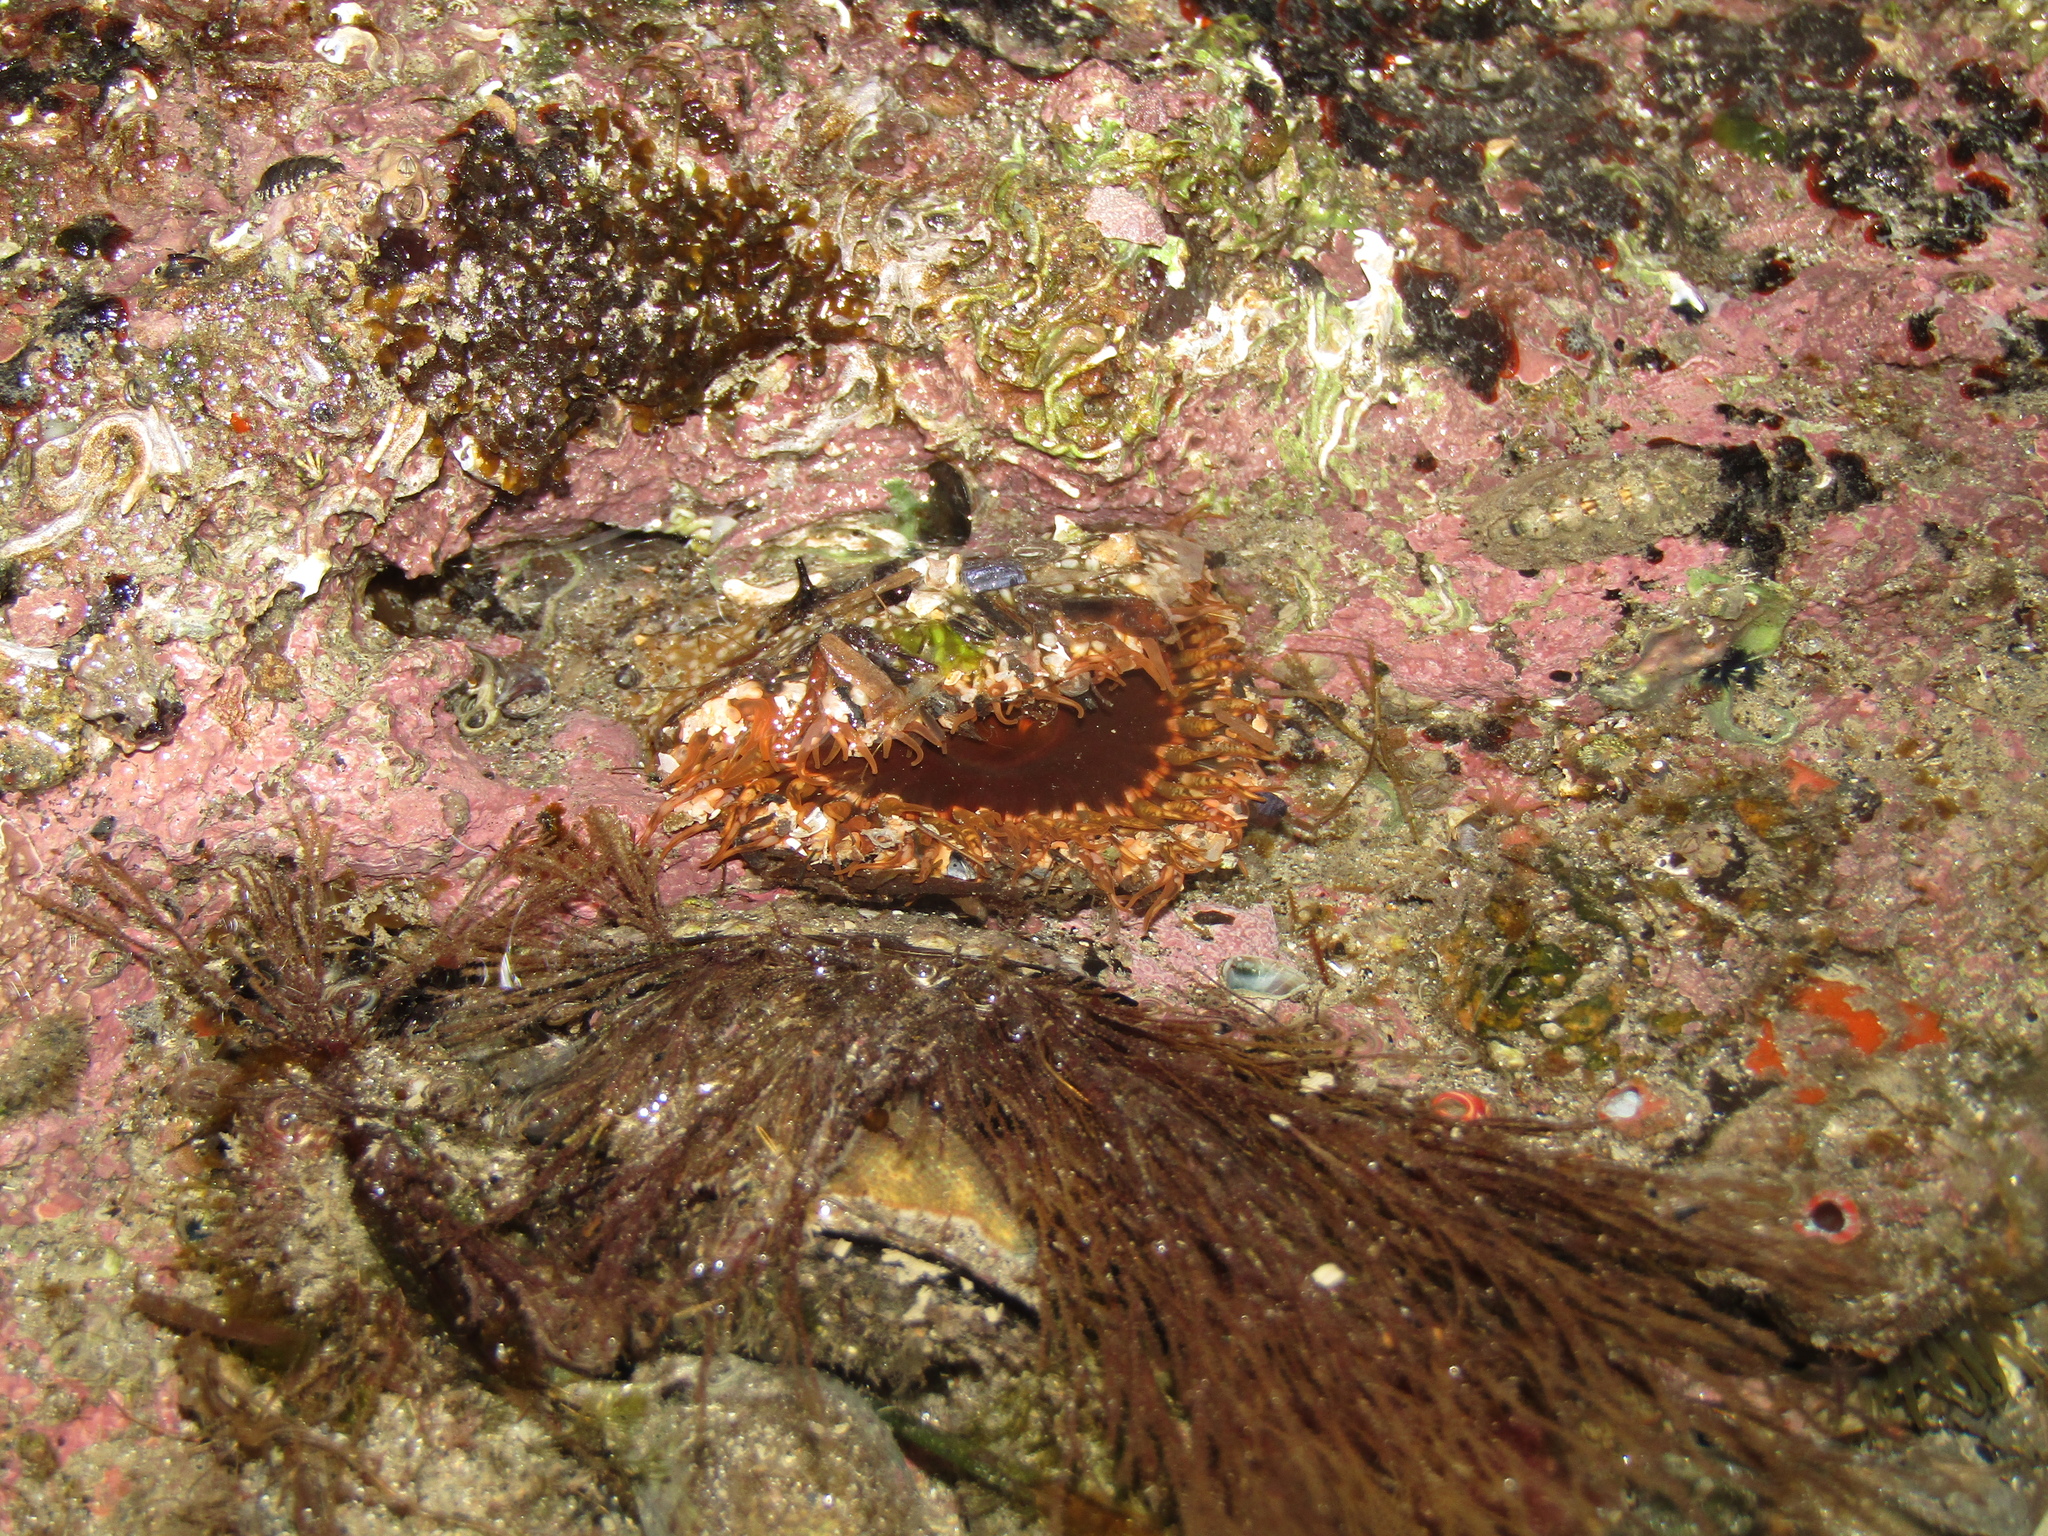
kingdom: Animalia
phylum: Cnidaria
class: Anthozoa
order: Actiniaria
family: Actiniidae
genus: Oulactis
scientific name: Oulactis muscosa
